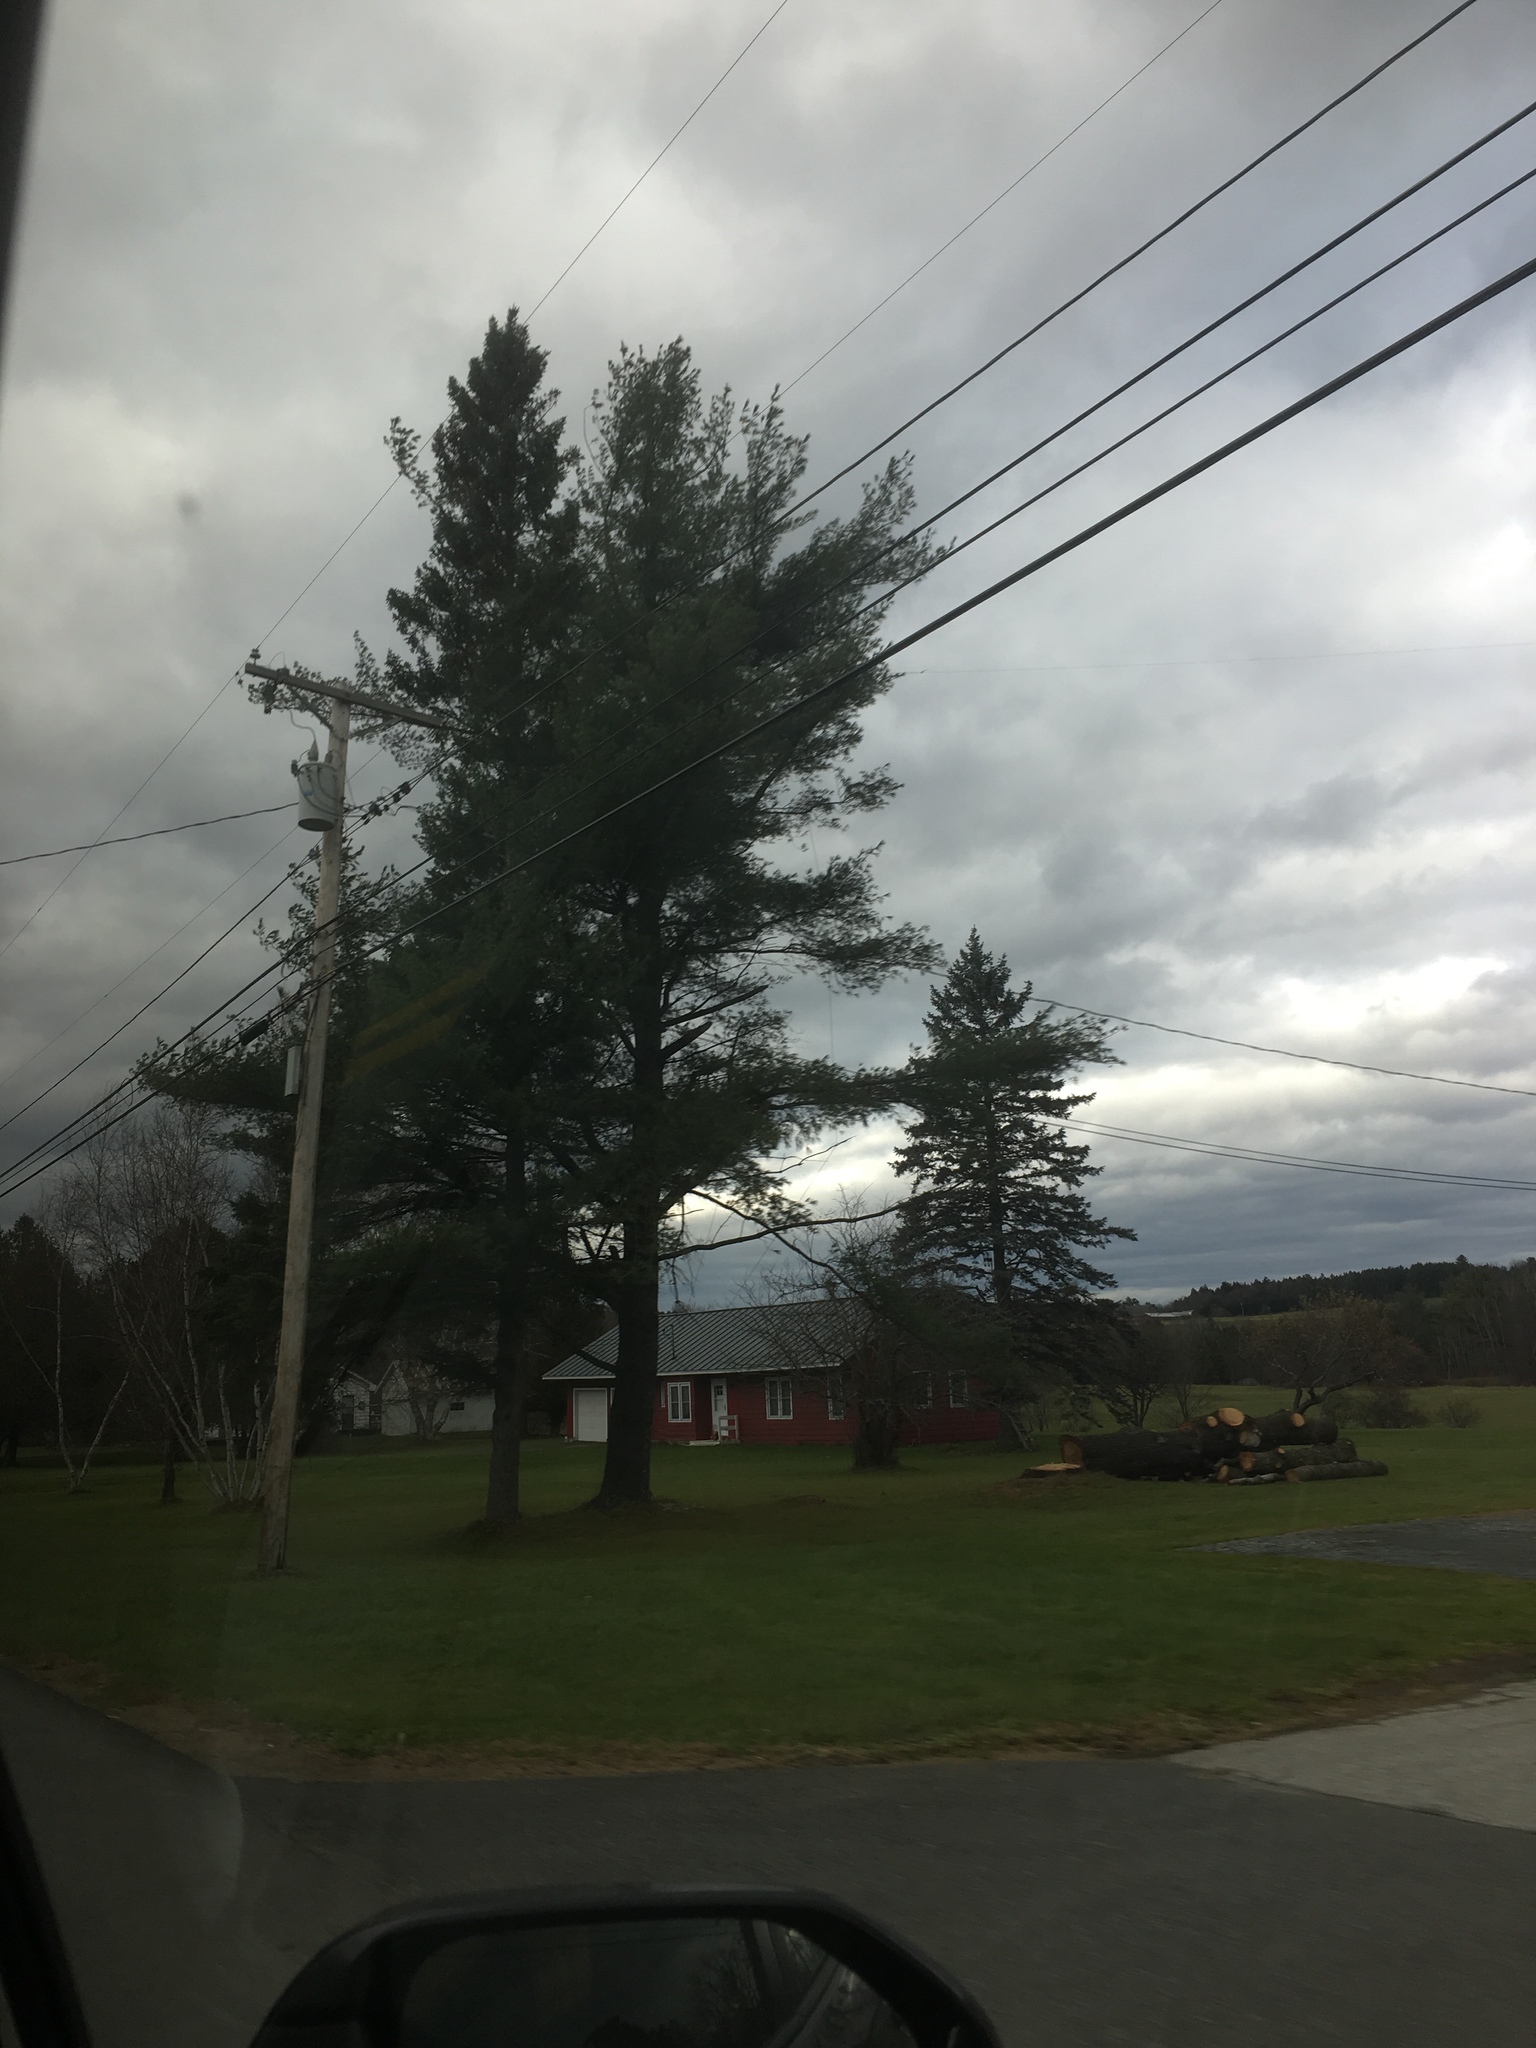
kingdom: Plantae
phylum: Tracheophyta
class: Pinopsida
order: Pinales
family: Pinaceae
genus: Pinus
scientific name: Pinus strobus
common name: Weymouth pine
